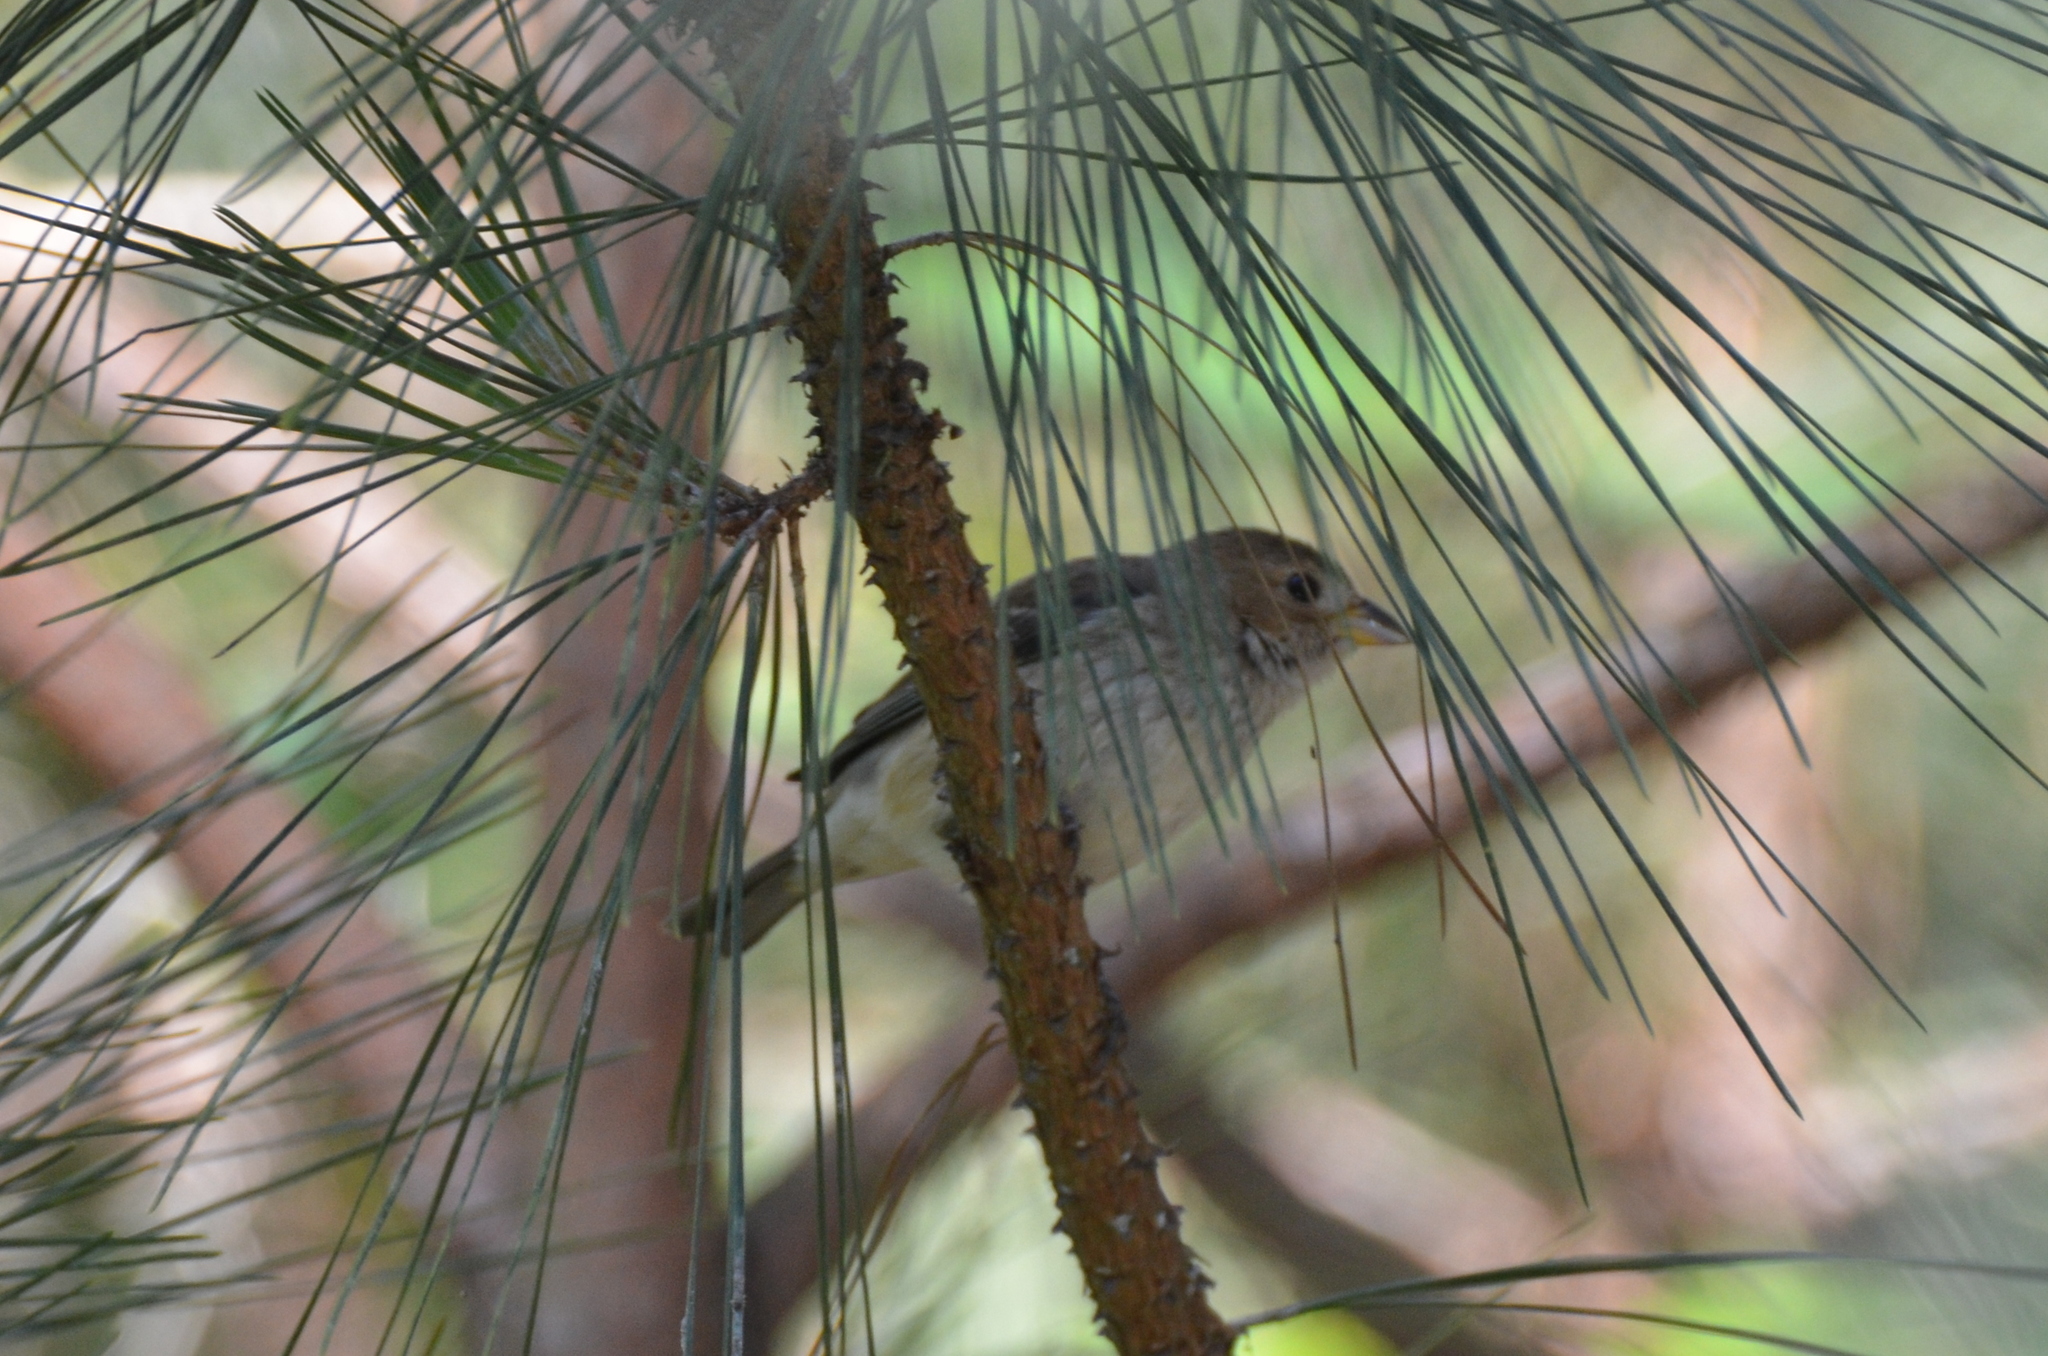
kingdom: Animalia
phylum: Chordata
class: Aves
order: Passeriformes
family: Cardinalidae
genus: Passerina
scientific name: Passerina cyanea
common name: Indigo bunting
